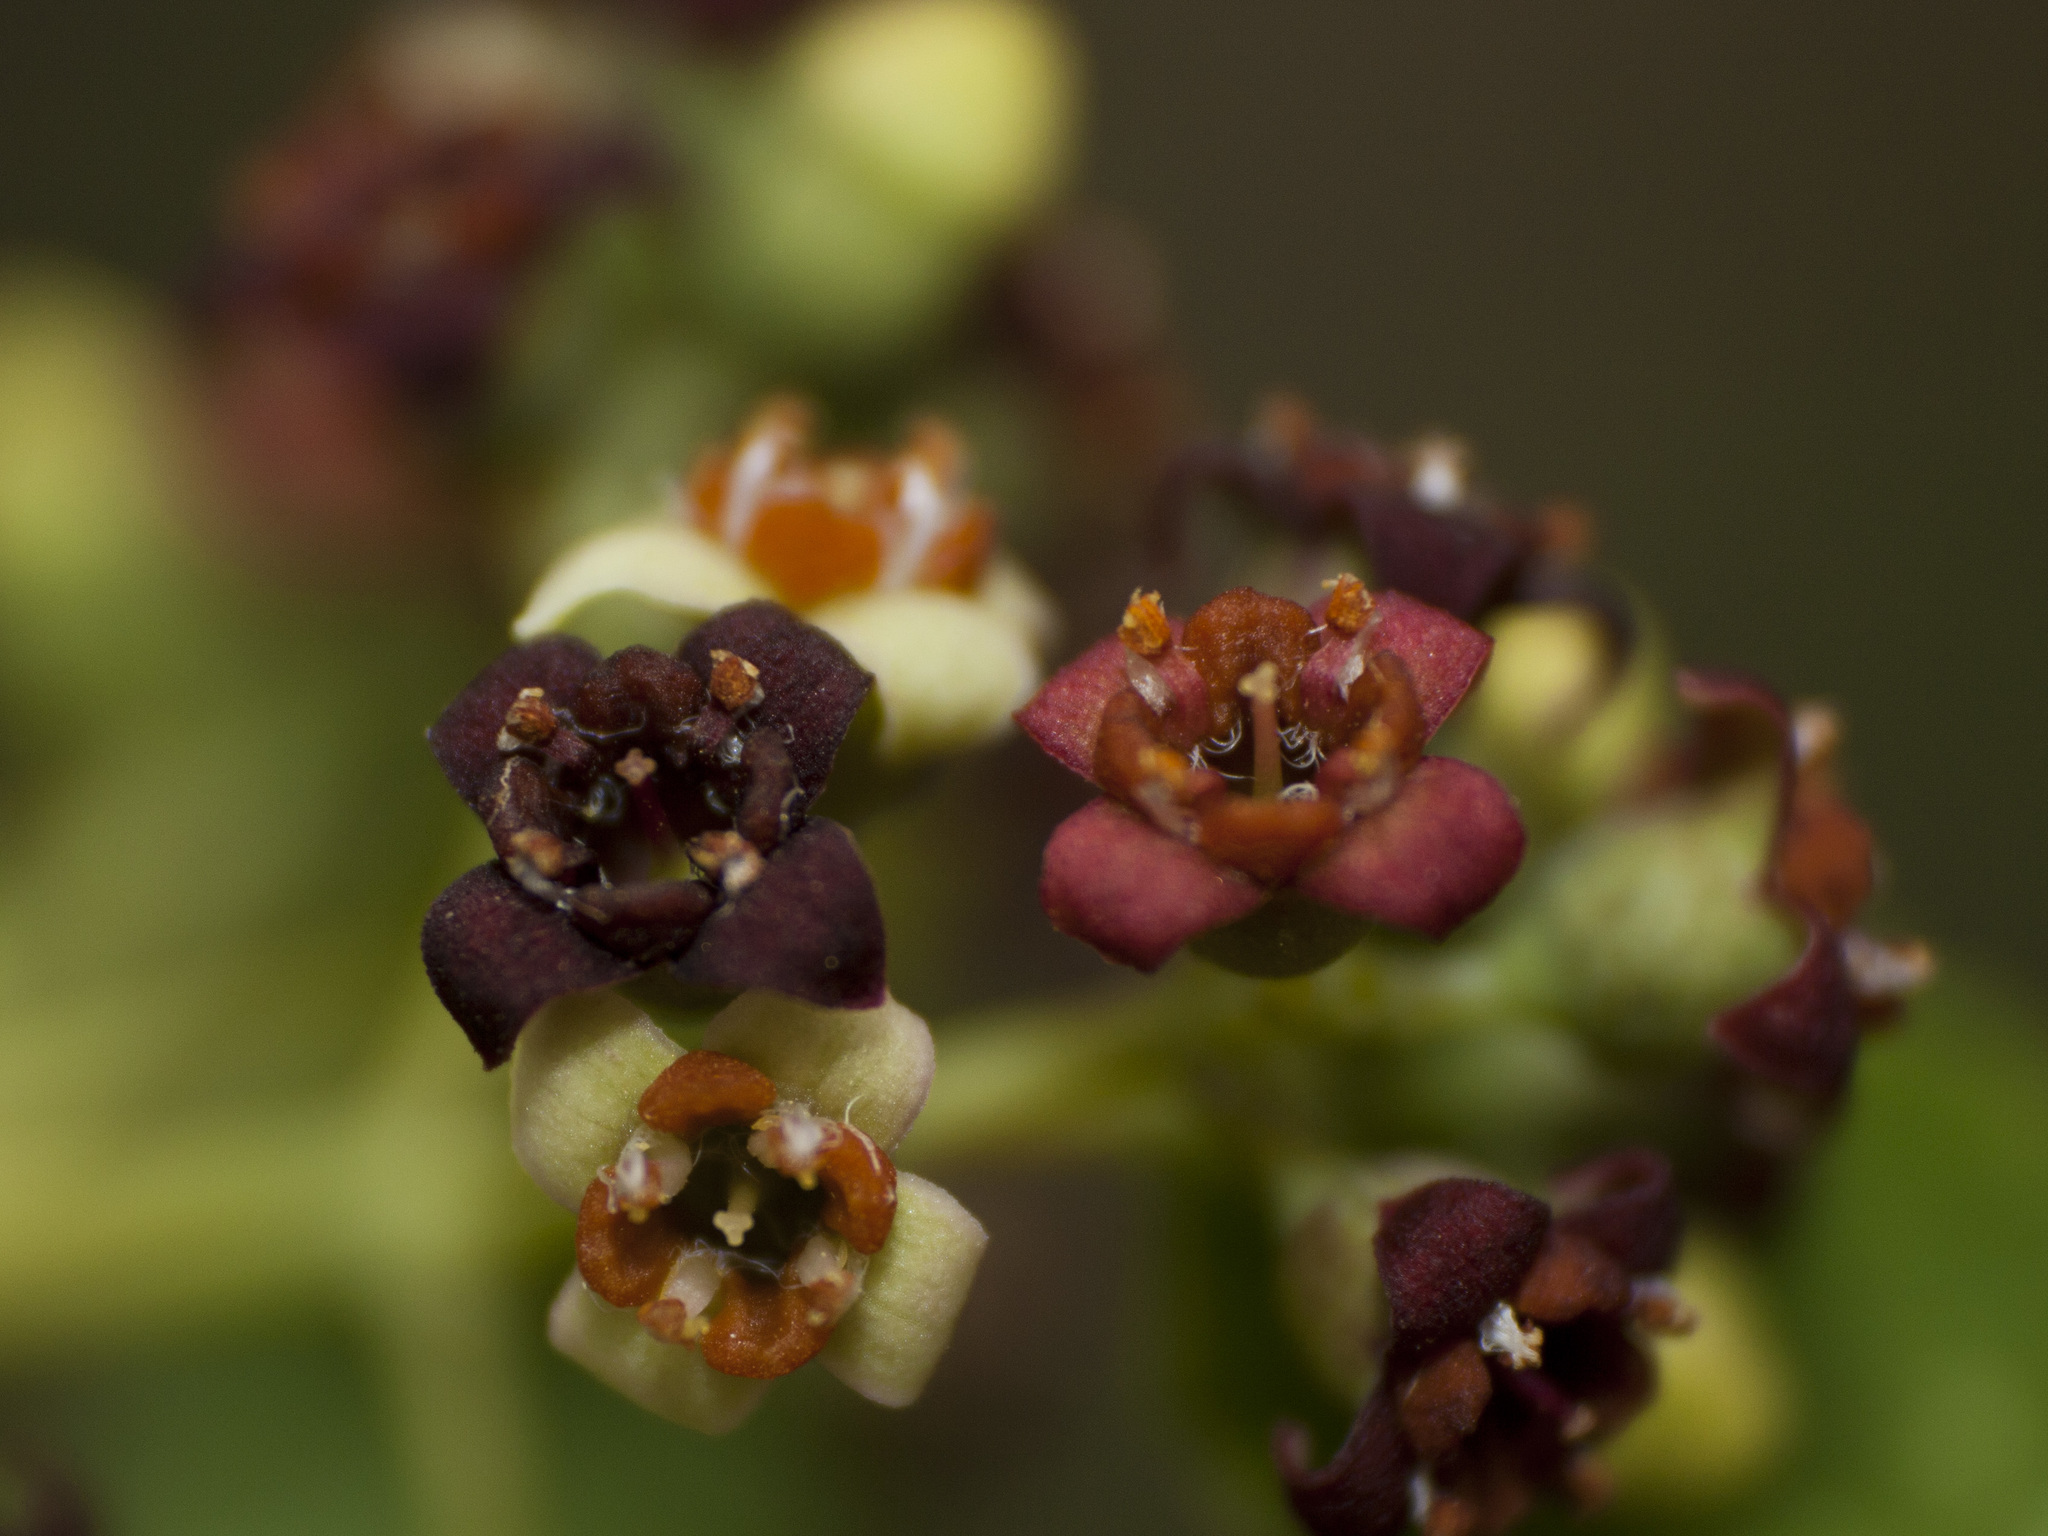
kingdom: Plantae
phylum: Tracheophyta
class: Magnoliopsida
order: Santalales
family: Santalaceae
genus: Santalum
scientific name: Santalum album
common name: Indian sandalwood
